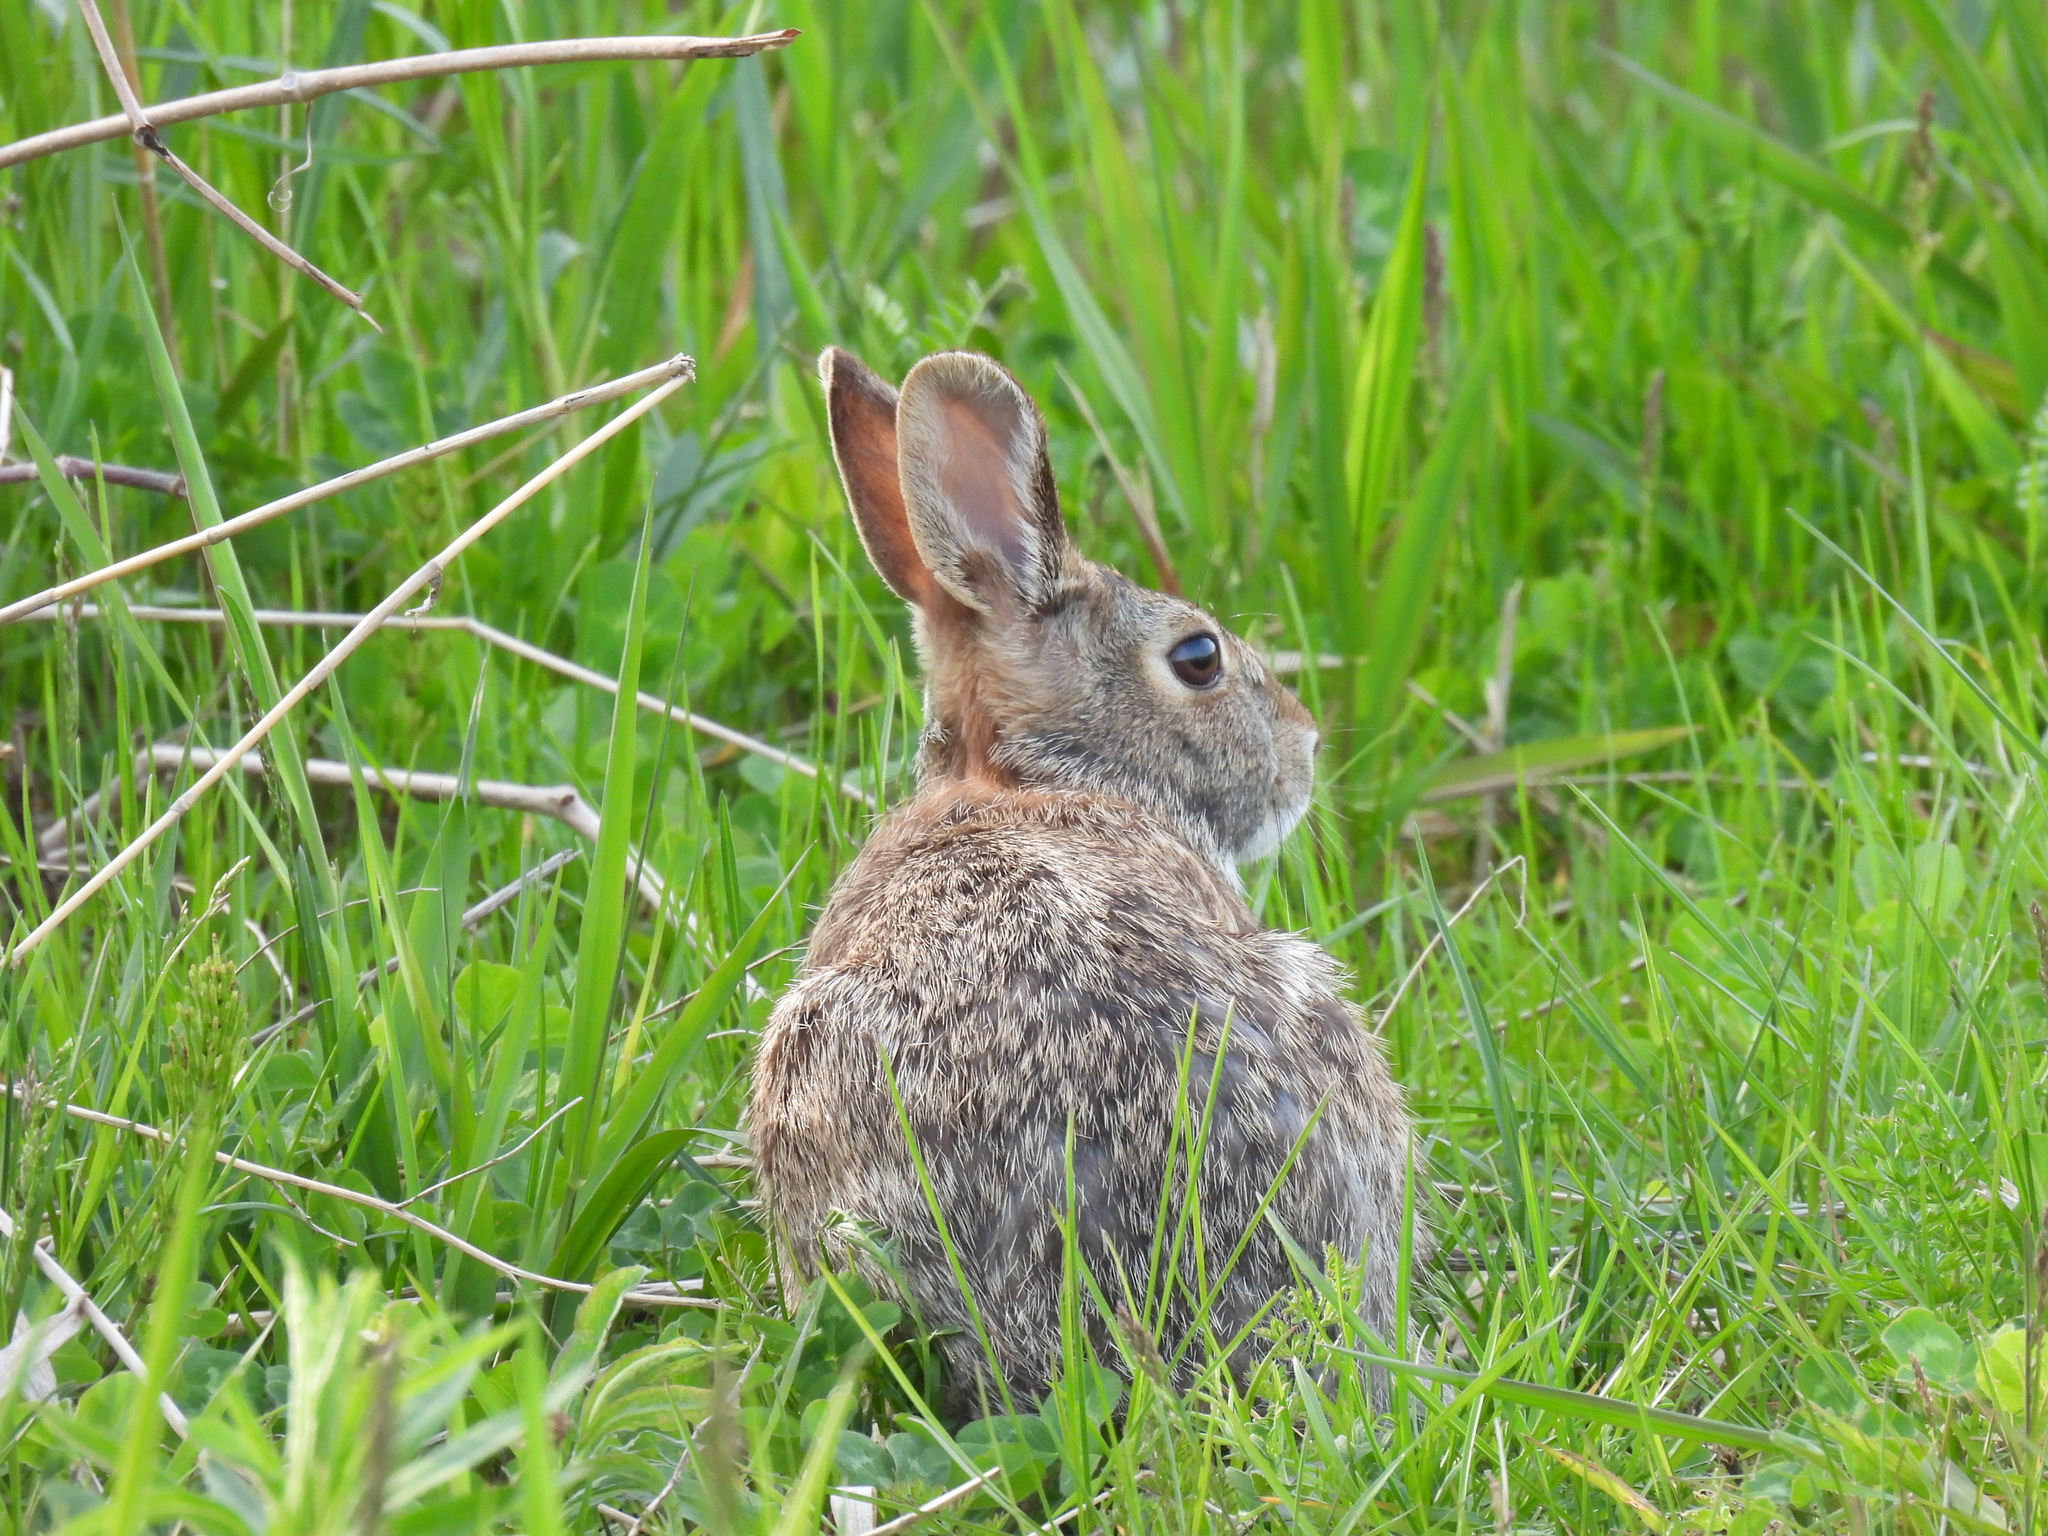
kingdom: Animalia
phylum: Chordata
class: Mammalia
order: Lagomorpha
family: Leporidae
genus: Sylvilagus
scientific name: Sylvilagus floridanus
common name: Eastern cottontail
